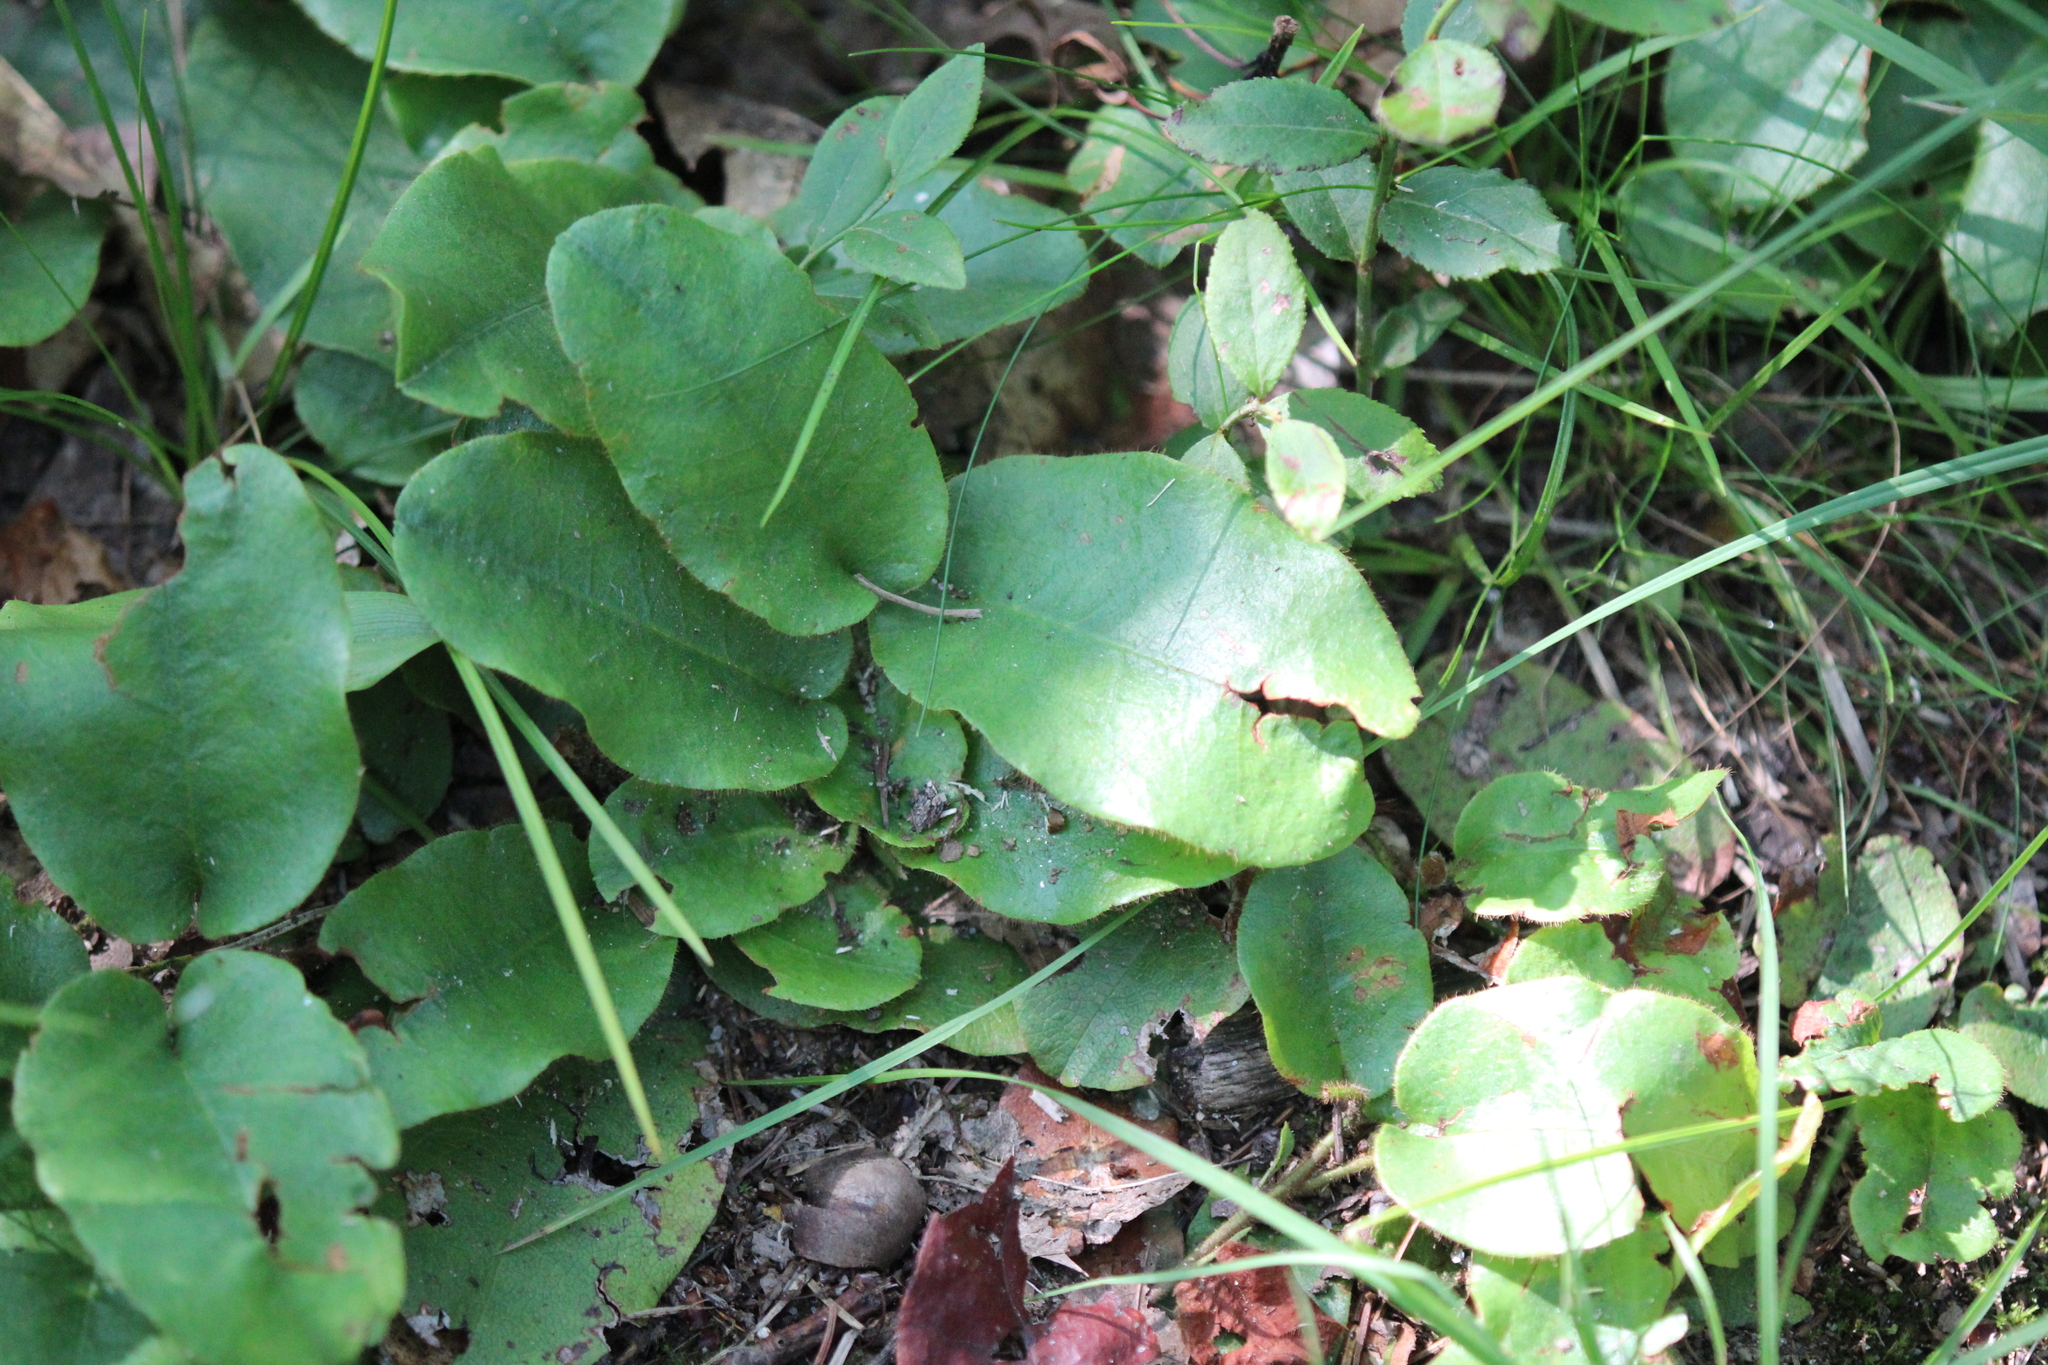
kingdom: Plantae
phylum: Tracheophyta
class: Magnoliopsida
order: Ericales
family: Ericaceae
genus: Epigaea
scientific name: Epigaea repens
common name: Gravelroot
